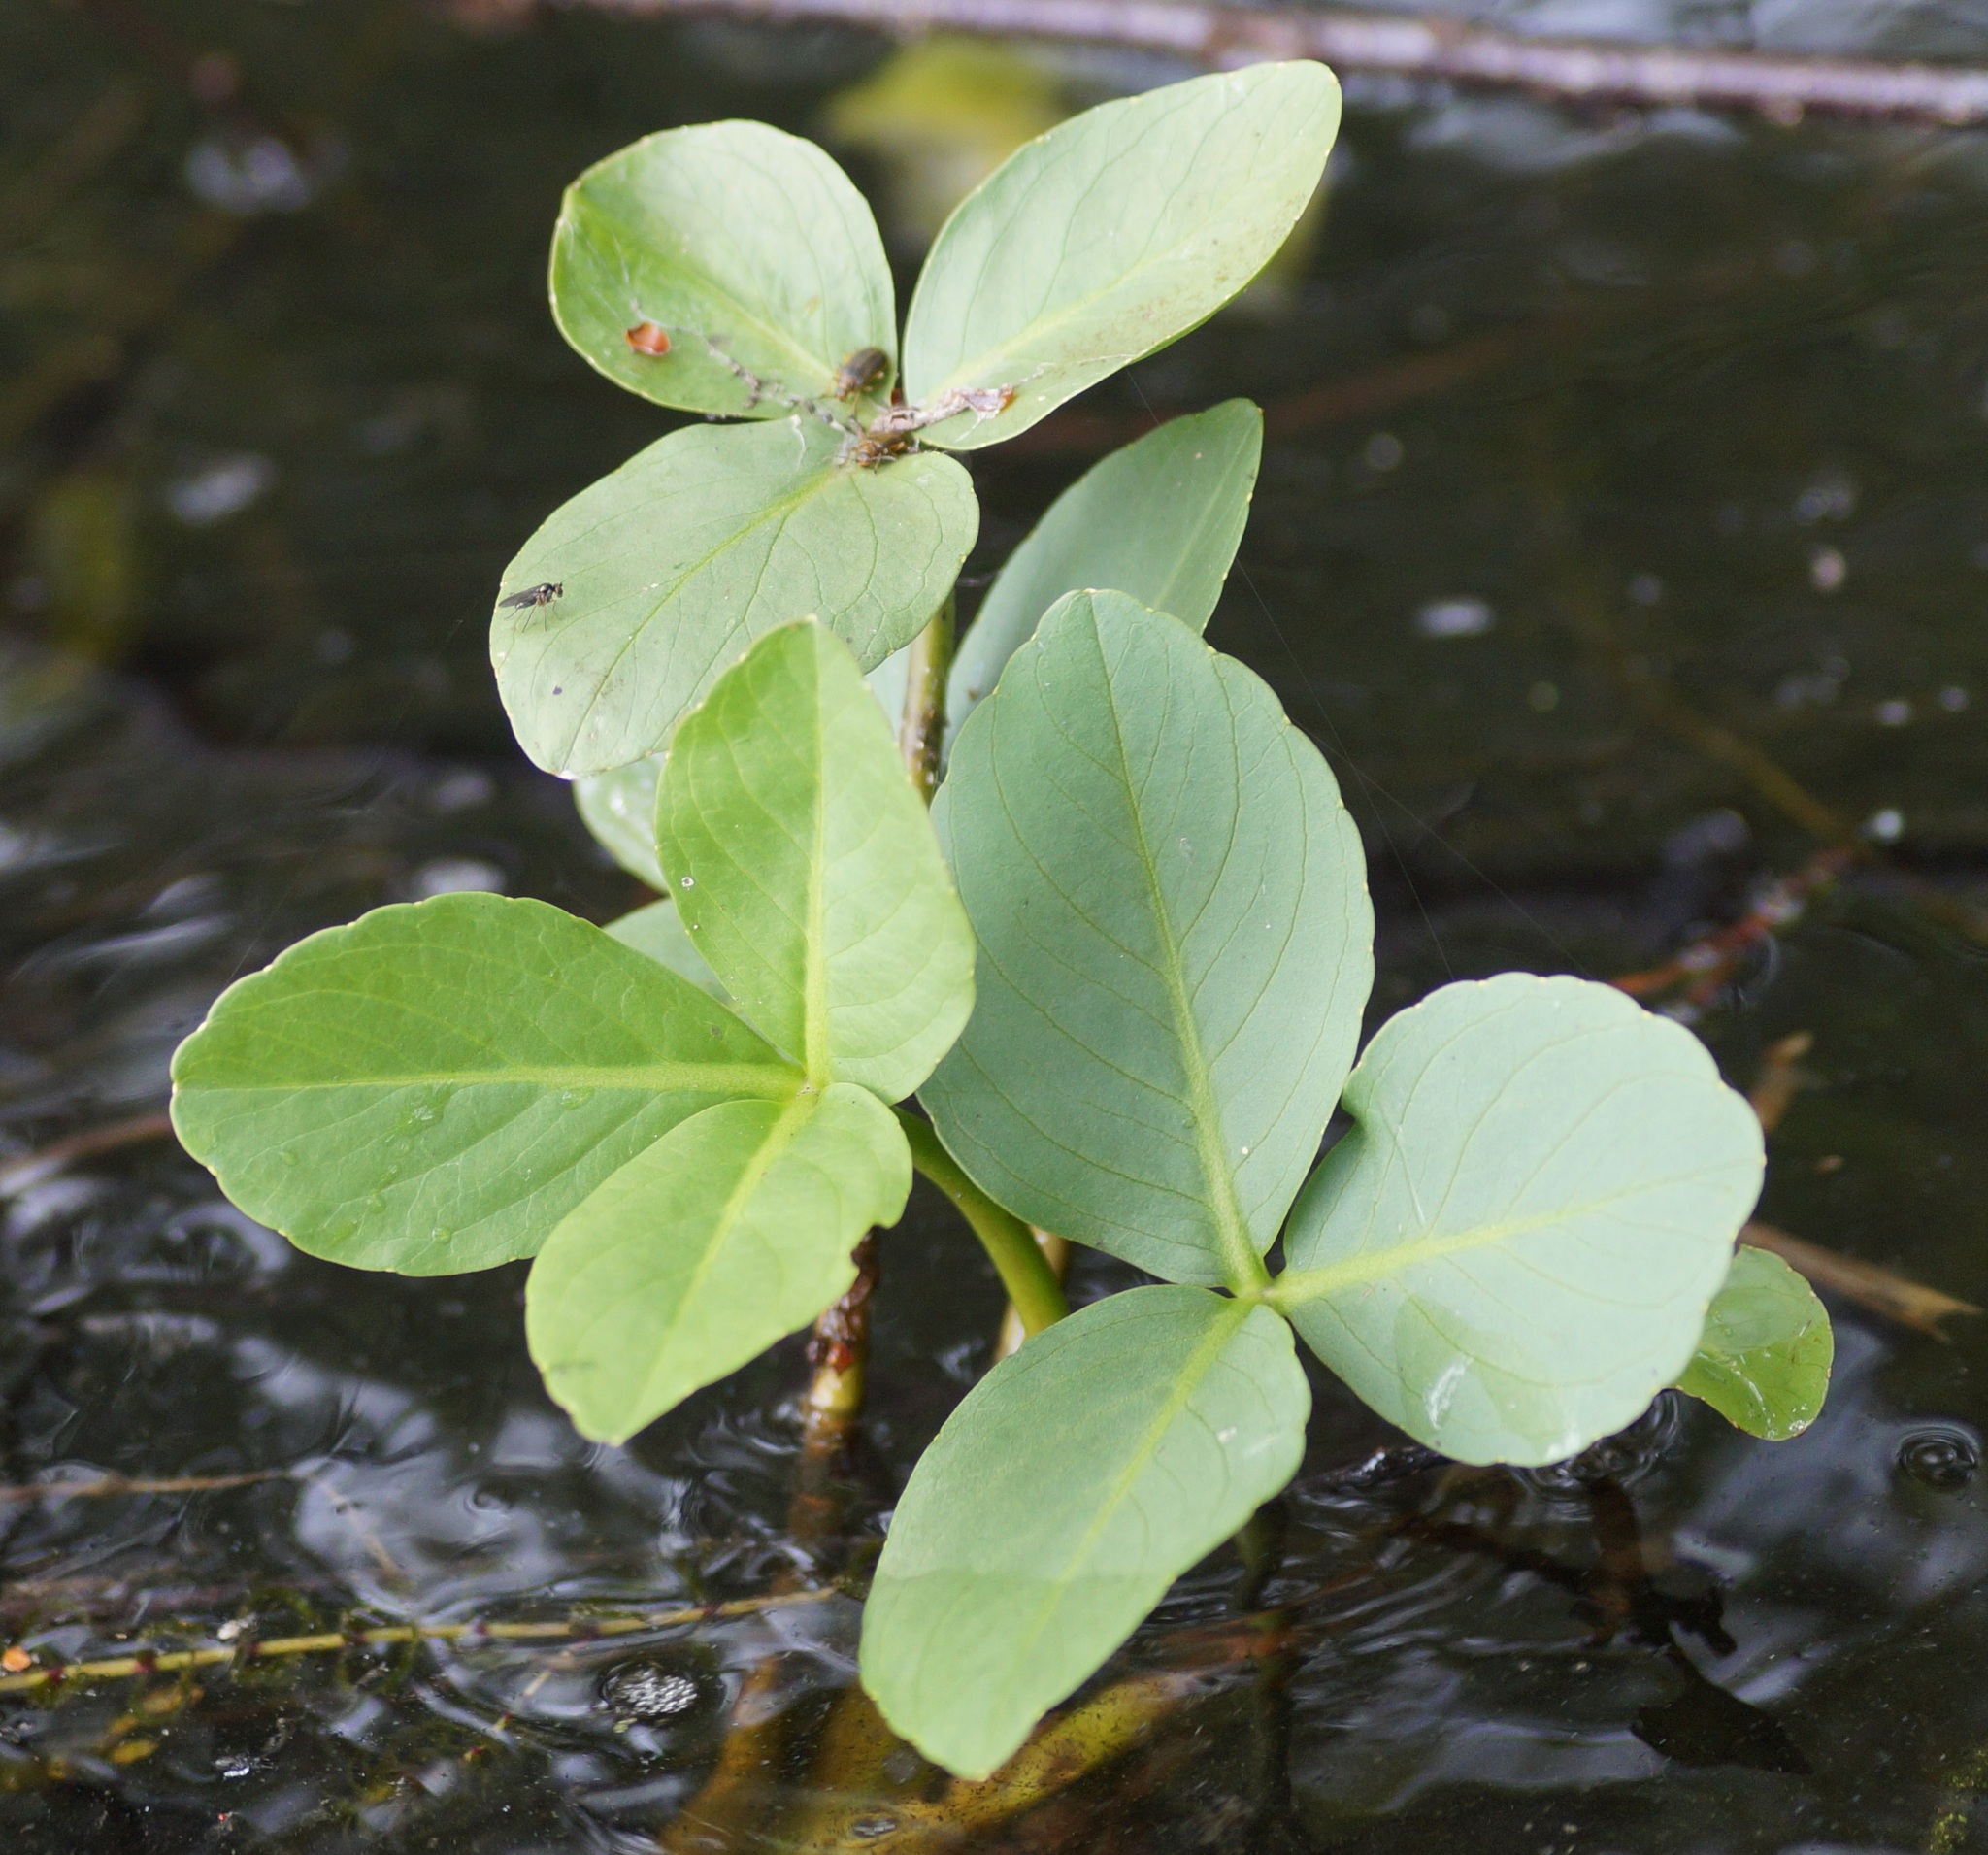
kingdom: Plantae
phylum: Tracheophyta
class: Magnoliopsida
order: Asterales
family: Menyanthaceae
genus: Menyanthes
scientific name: Menyanthes trifoliata
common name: Bogbean
